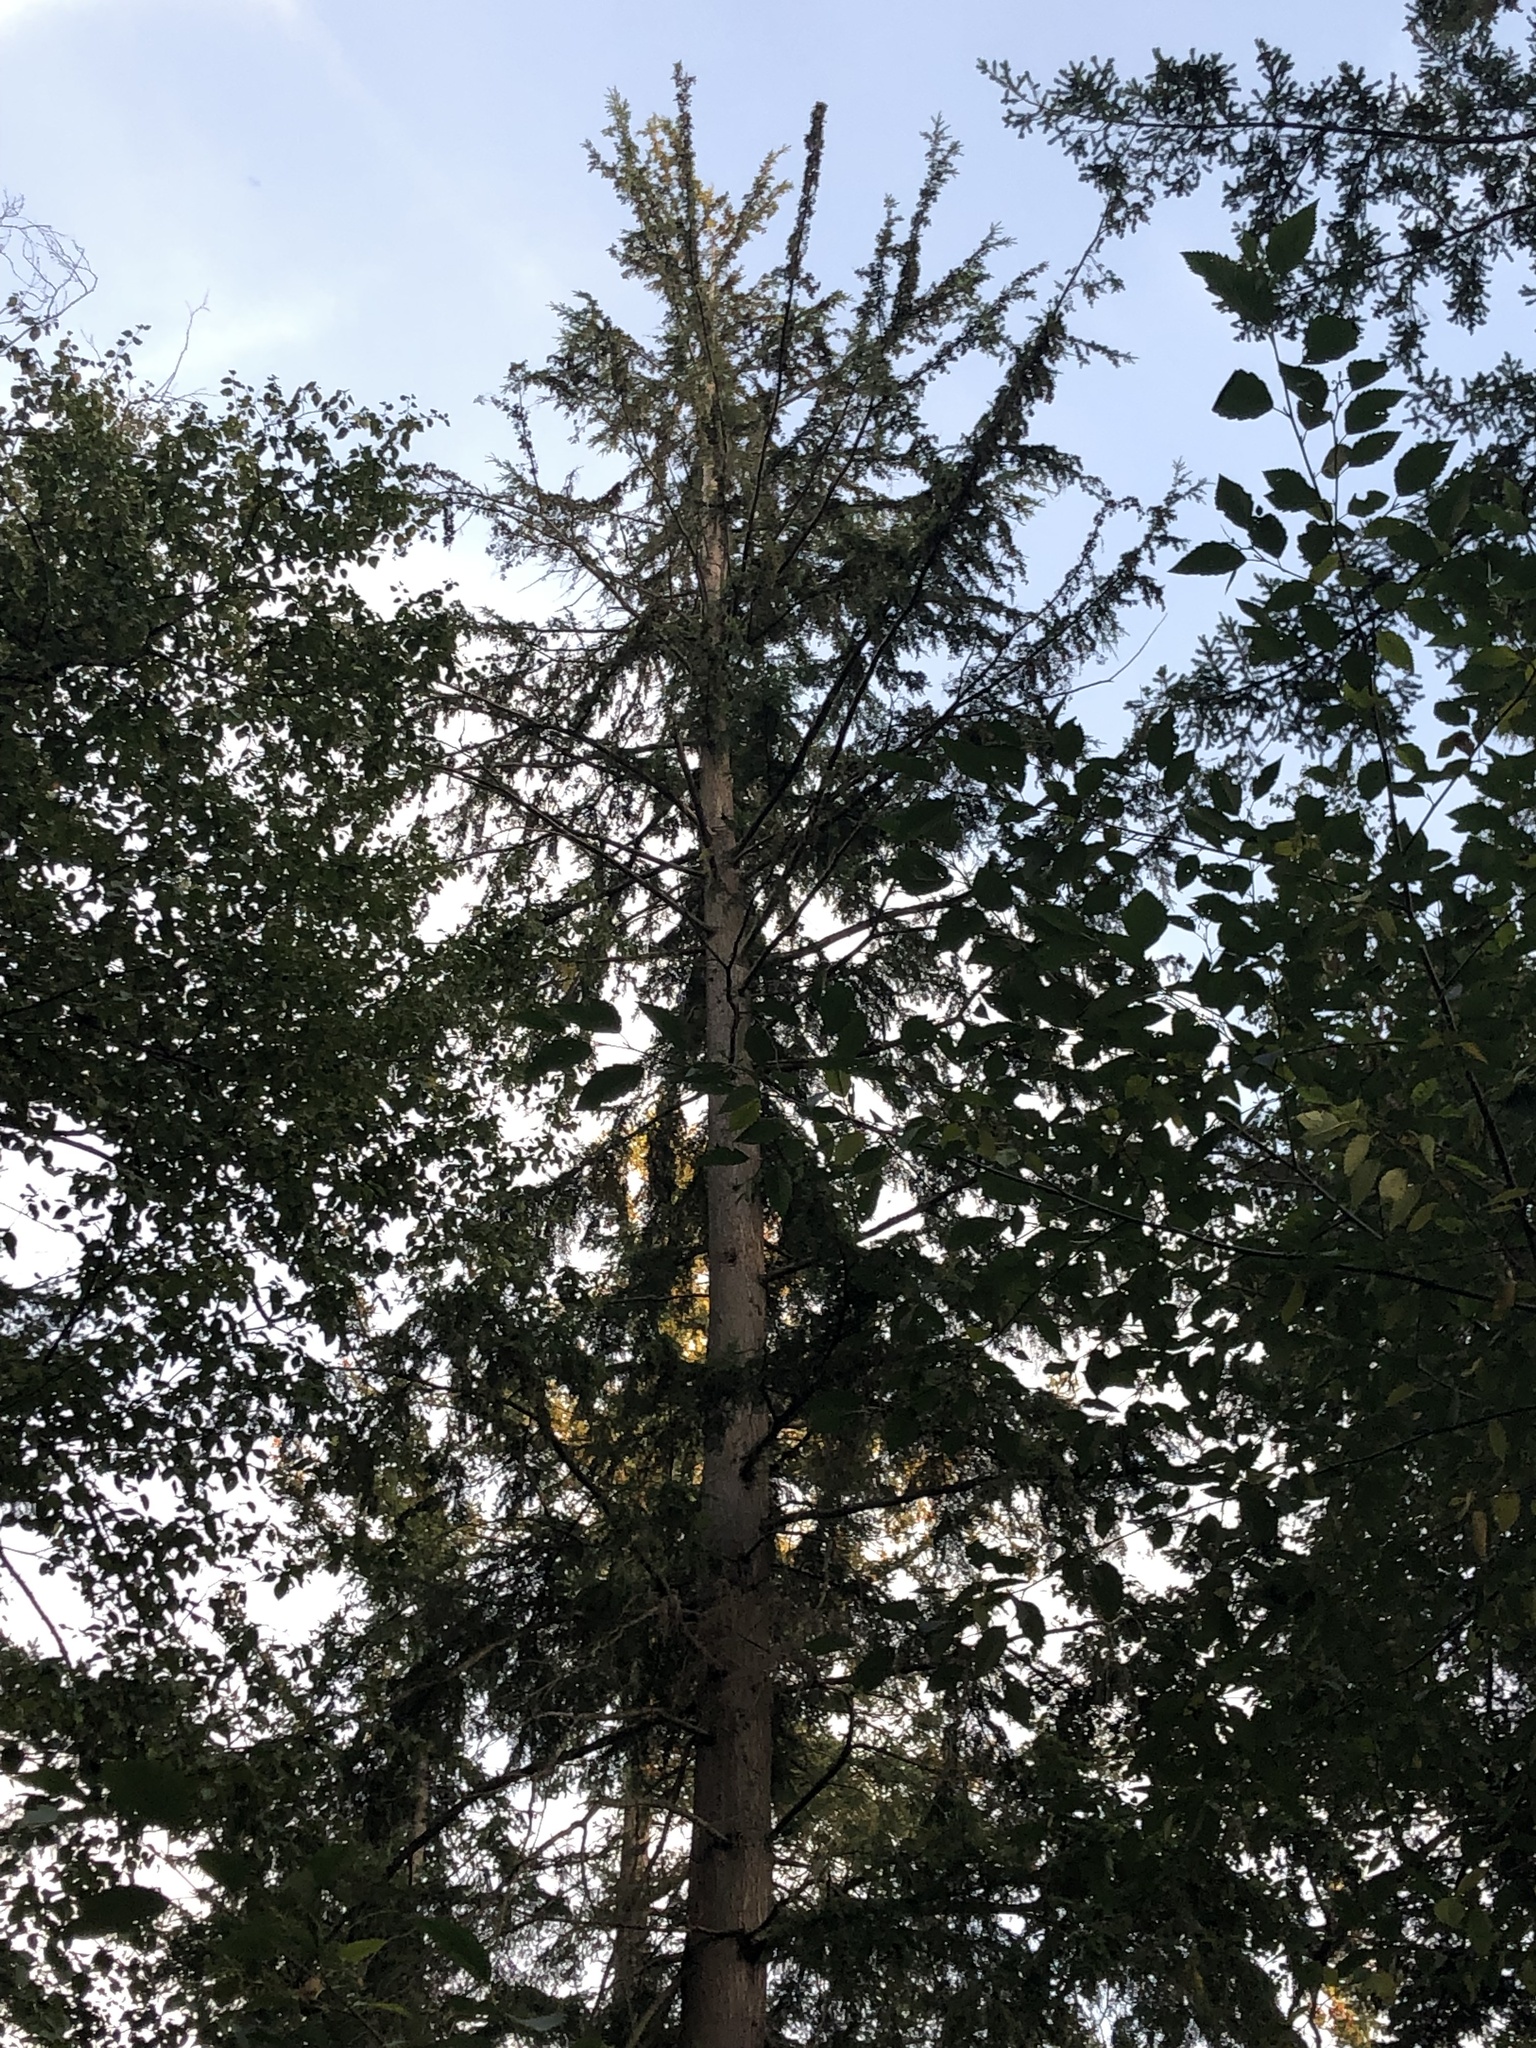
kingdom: Plantae
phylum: Tracheophyta
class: Pinopsida
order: Pinales
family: Pinaceae
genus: Tsuga
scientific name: Tsuga heterophylla
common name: Western hemlock
